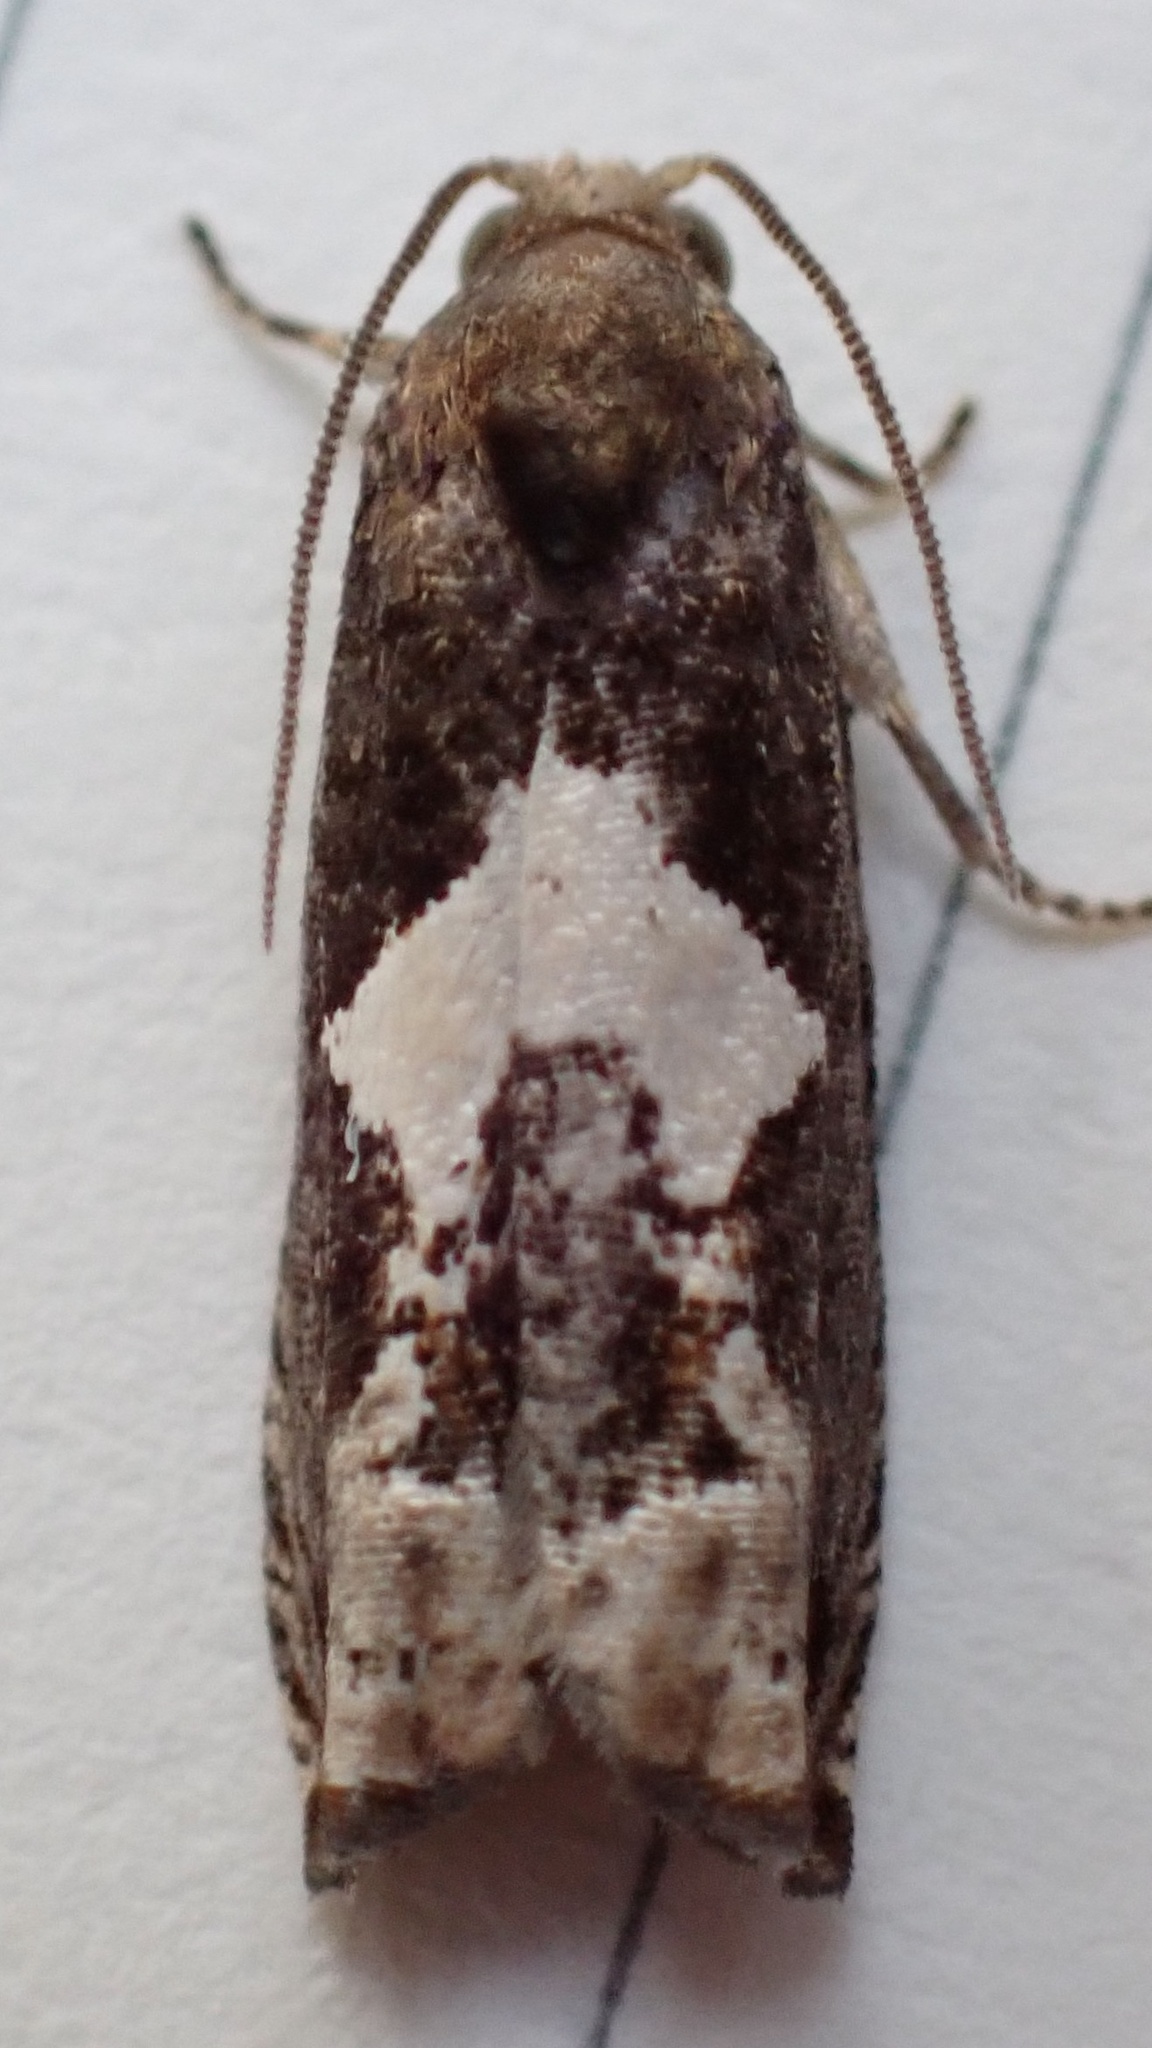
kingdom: Animalia
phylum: Arthropoda
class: Insecta
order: Lepidoptera
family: Tortricidae
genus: Epiblema
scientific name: Epiblema otiosana
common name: Bidens borer moth
